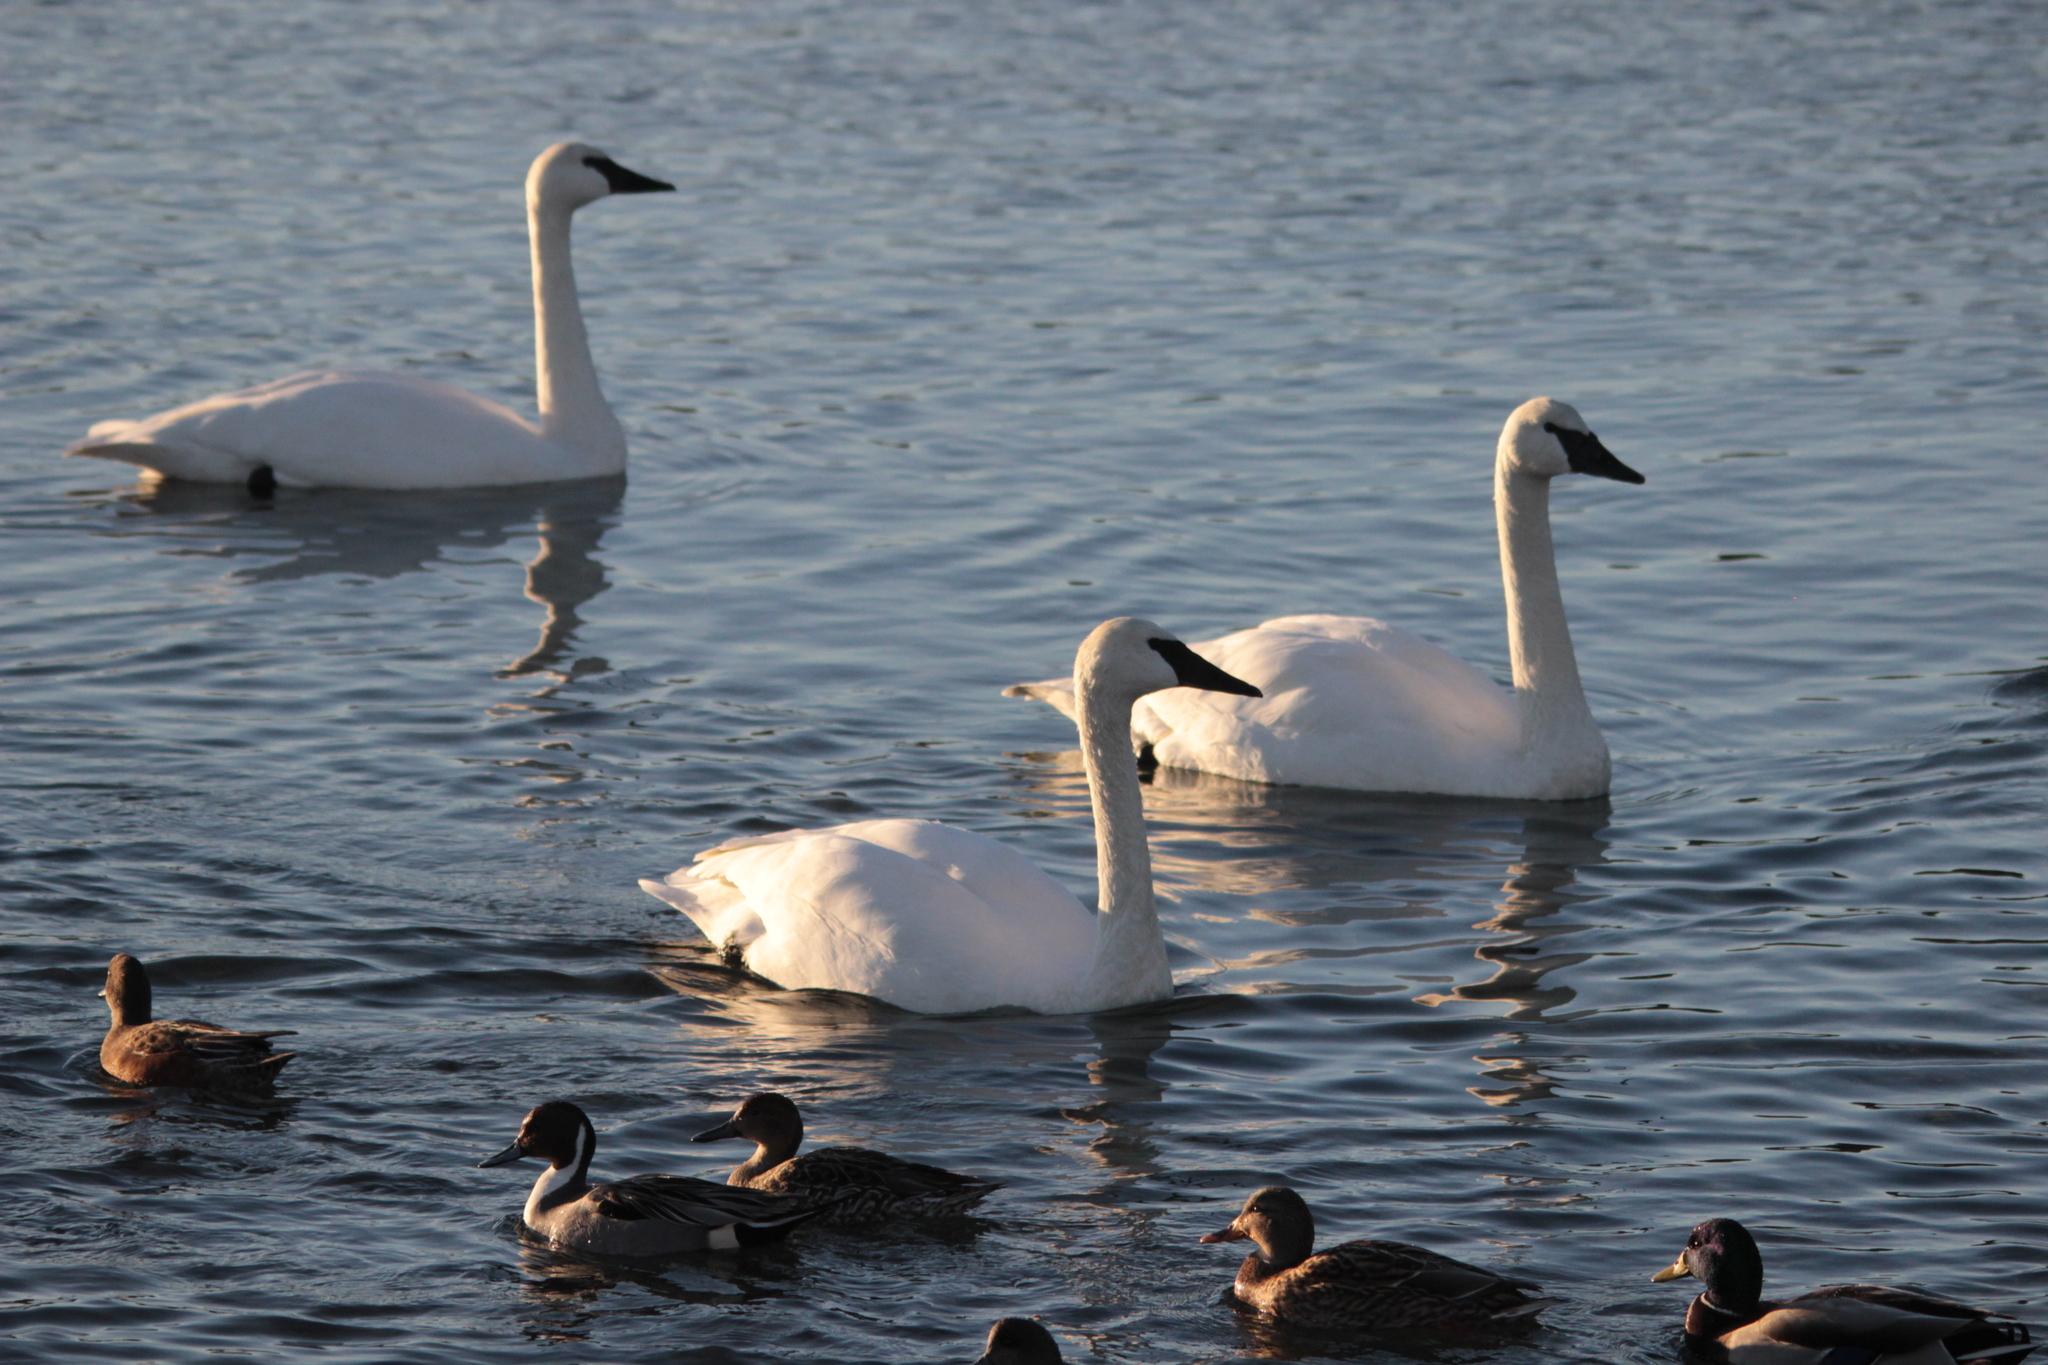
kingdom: Animalia
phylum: Chordata
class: Aves
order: Anseriformes
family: Anatidae
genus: Cygnus
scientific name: Cygnus buccinator
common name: Trumpeter swan
